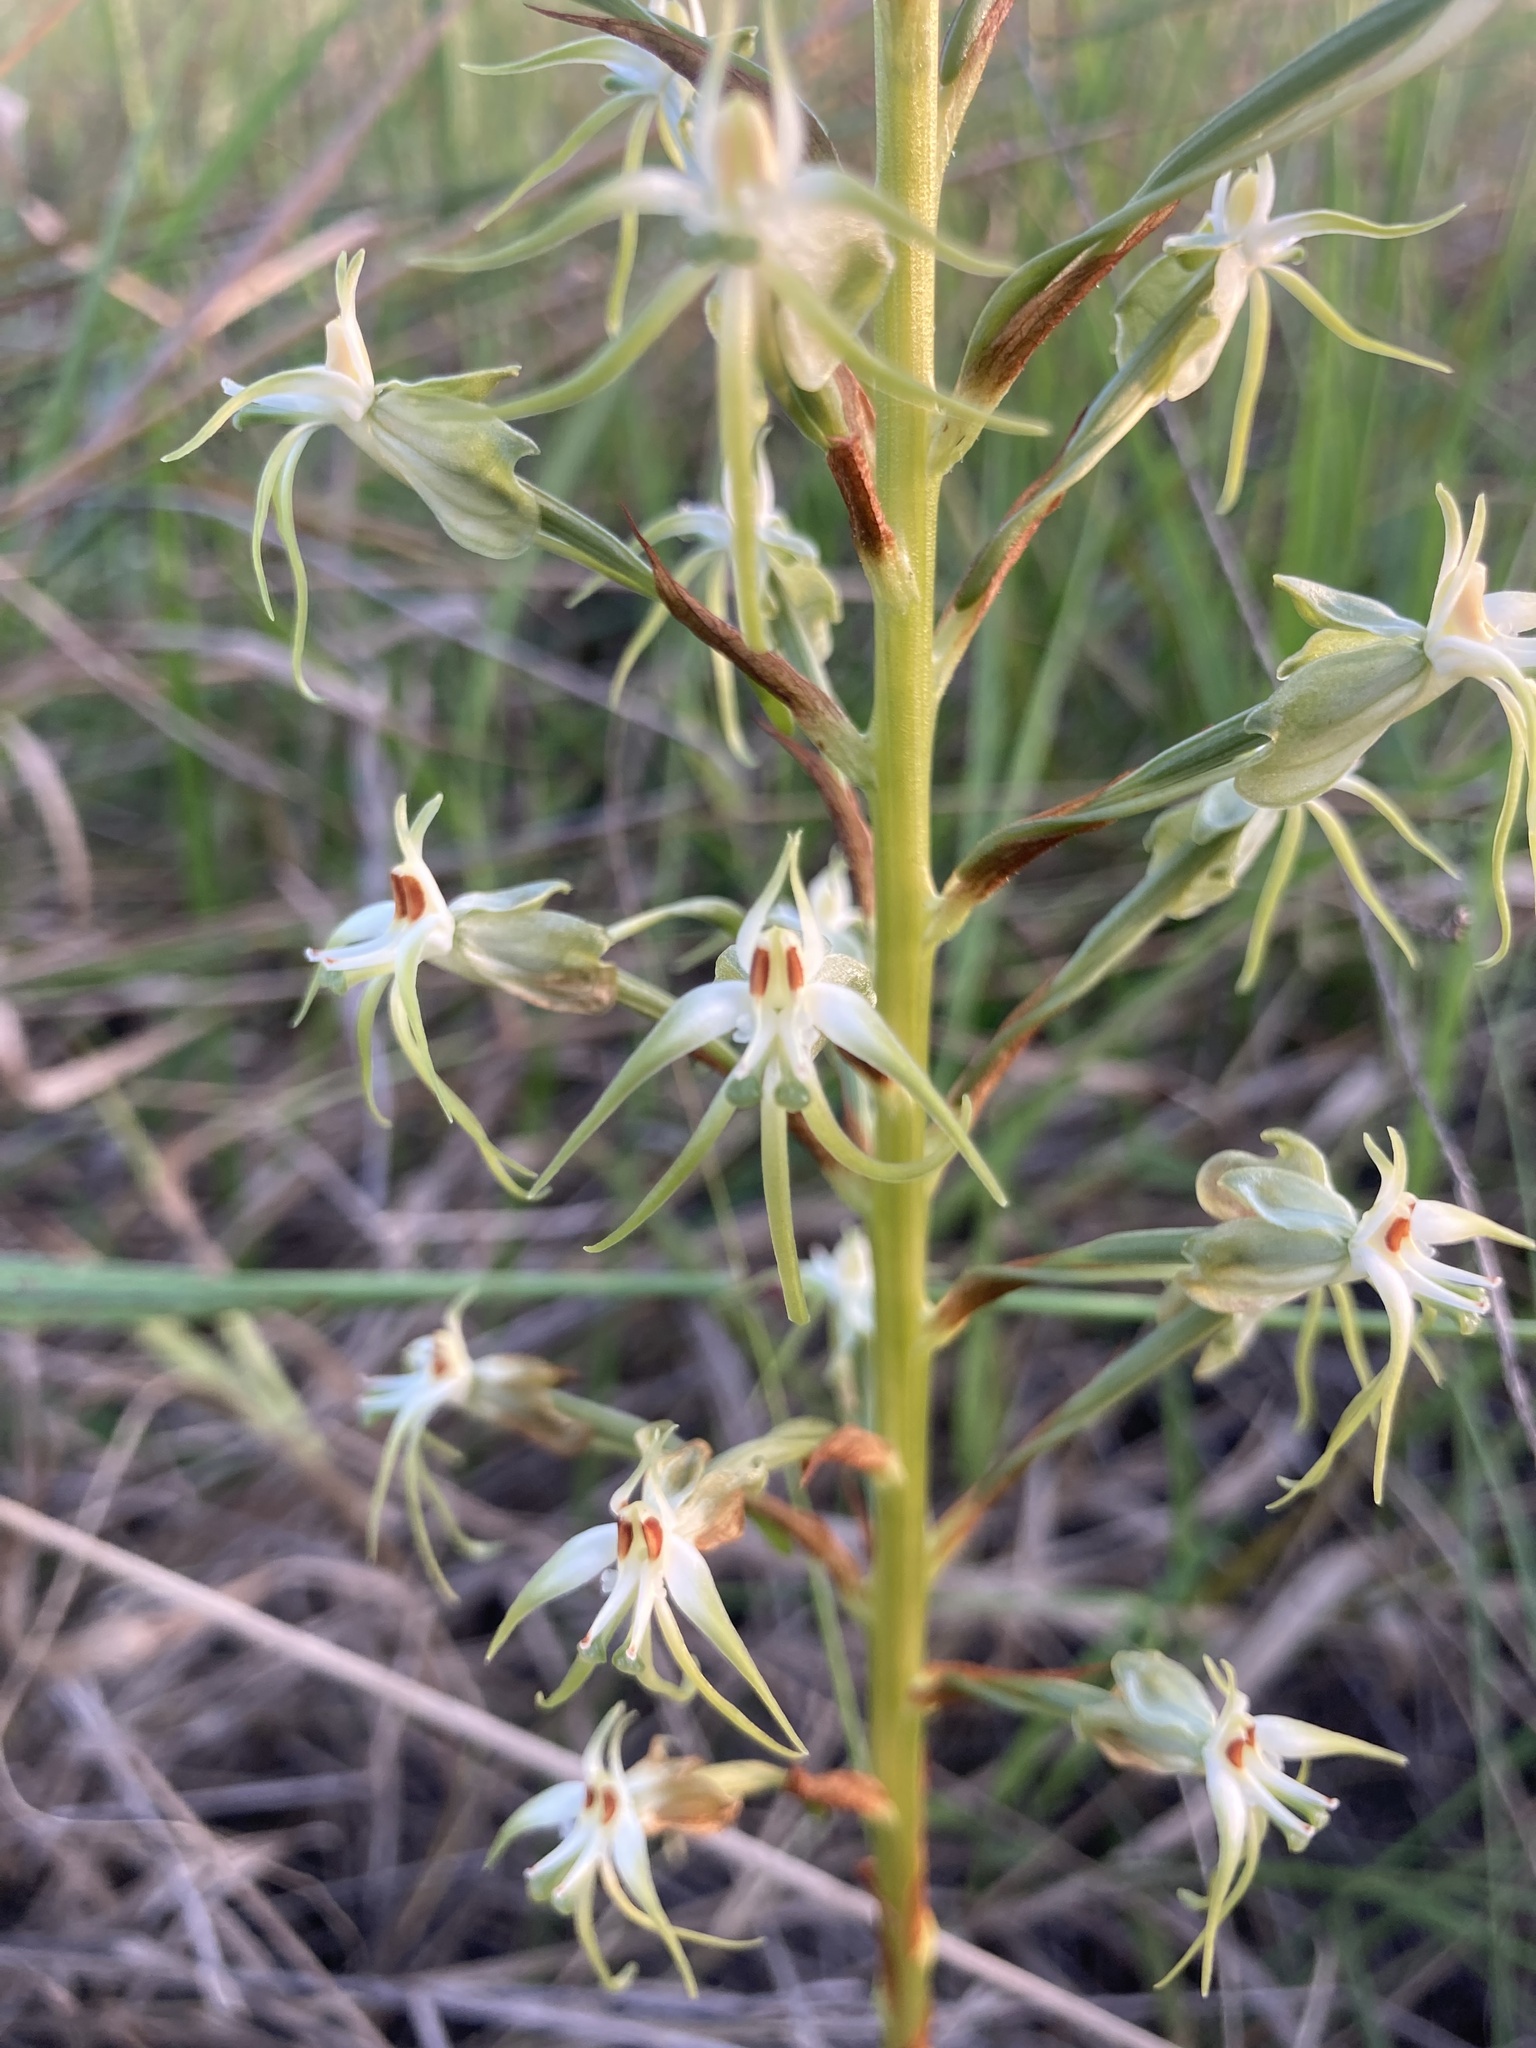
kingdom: Plantae
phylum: Tracheophyta
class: Liliopsida
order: Asparagales
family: Orchidaceae
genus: Habenaria
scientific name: Habenaria nyikana
